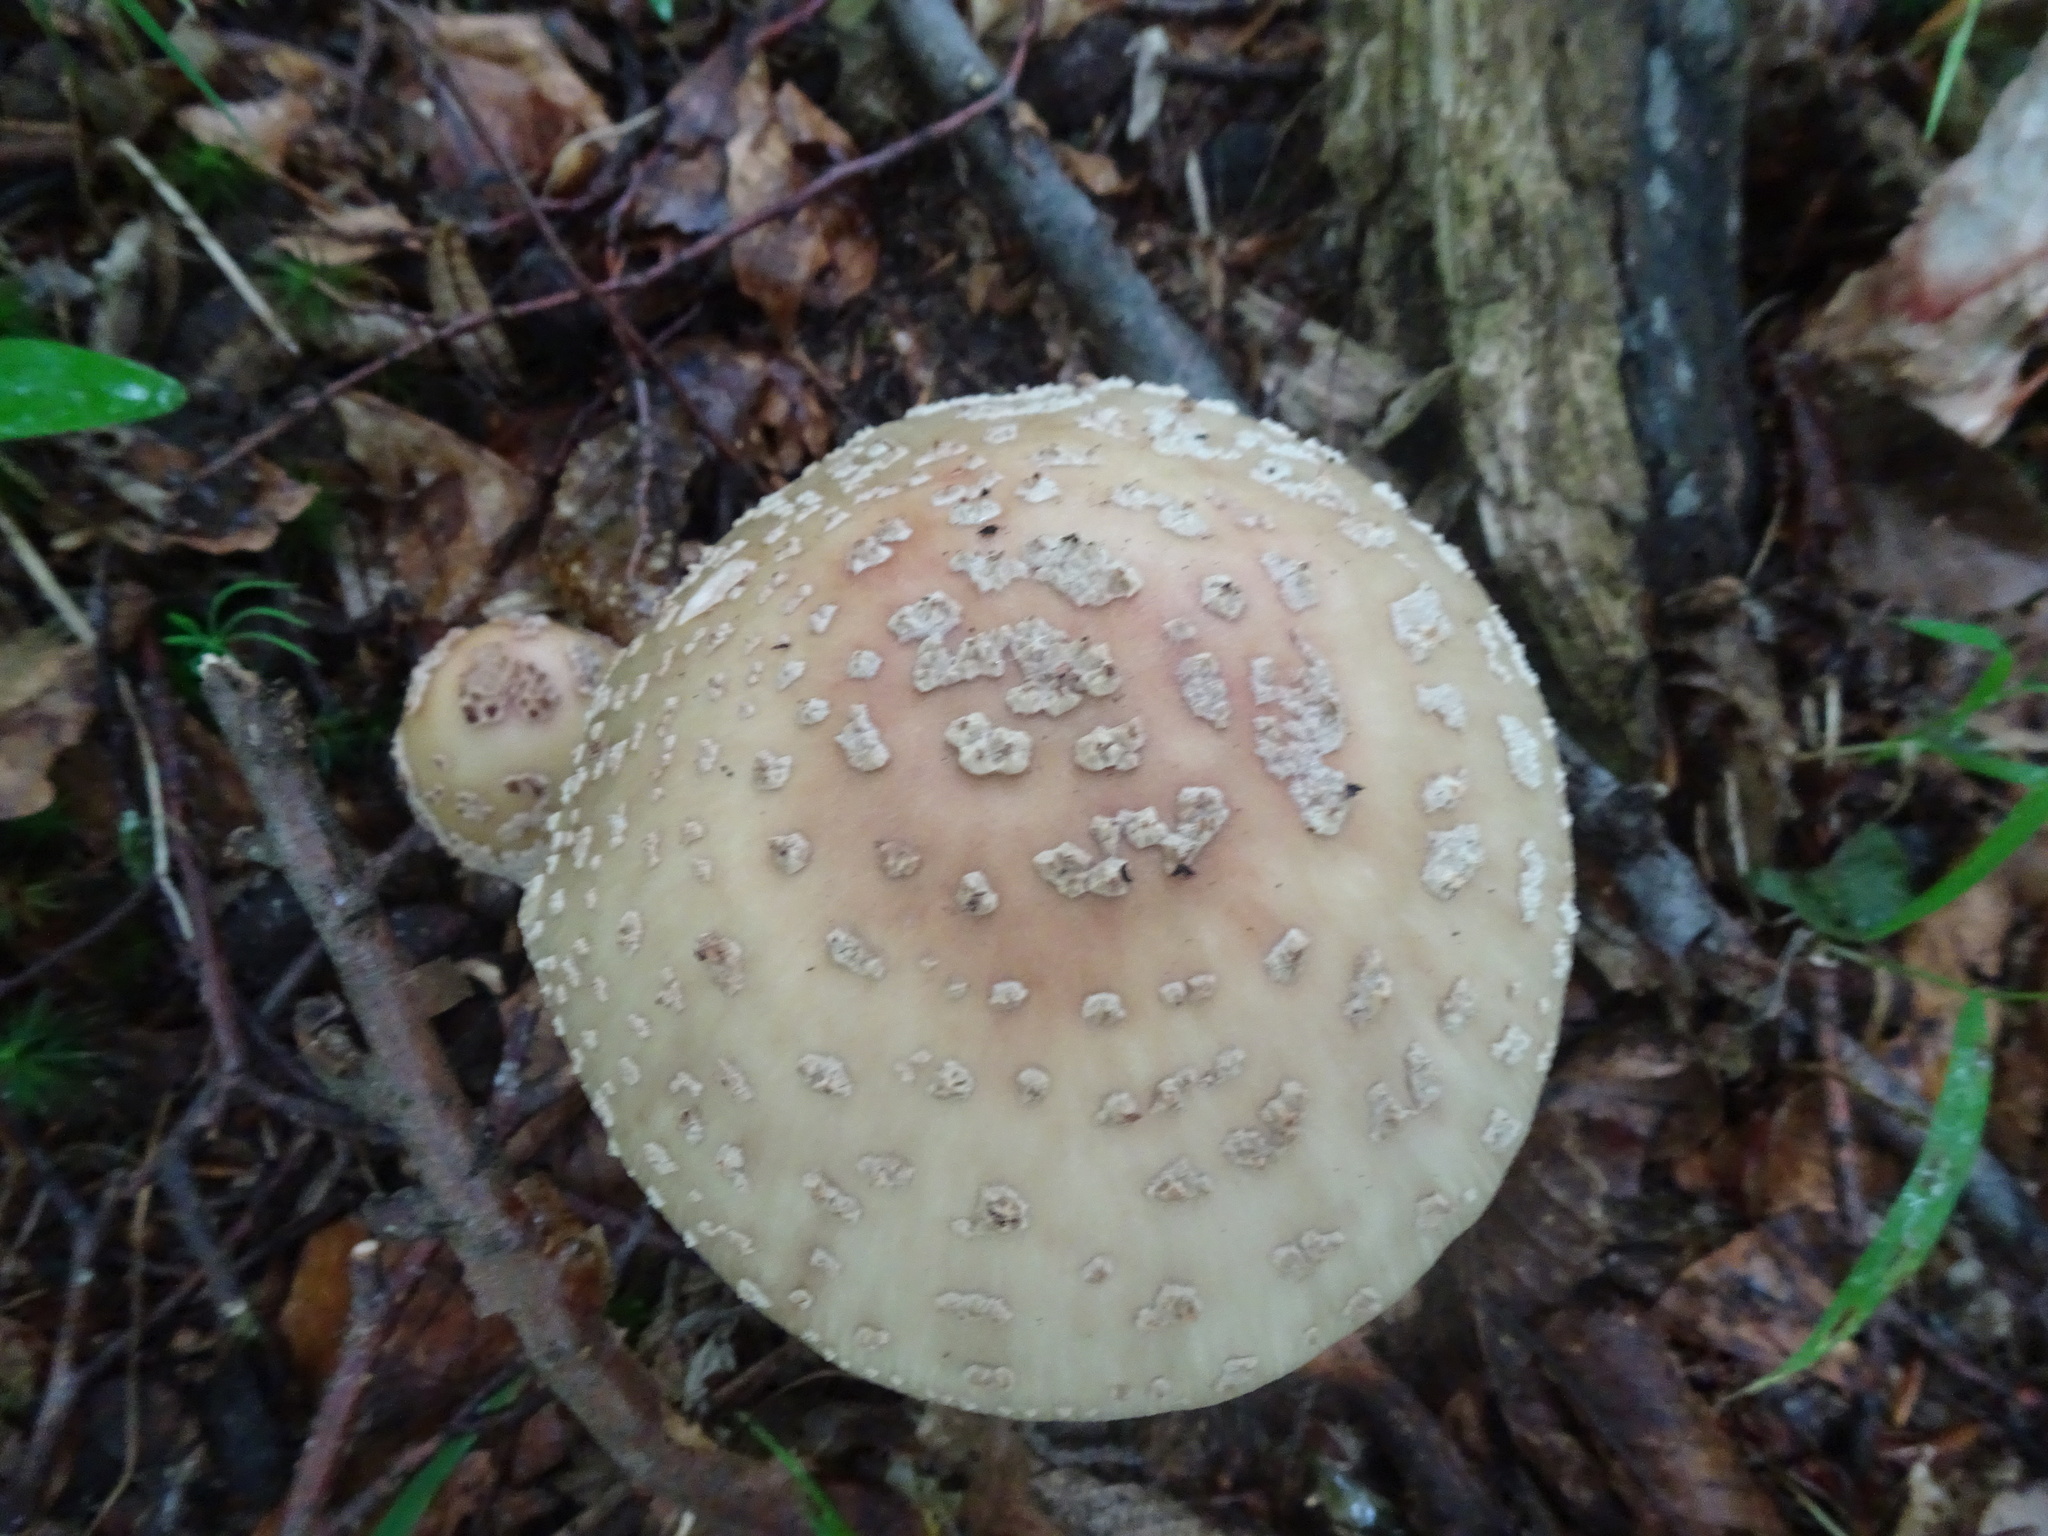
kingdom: Fungi
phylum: Basidiomycota
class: Agaricomycetes
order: Agaricales
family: Amanitaceae
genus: Amanita
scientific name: Amanita rubescens
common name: Blusher
